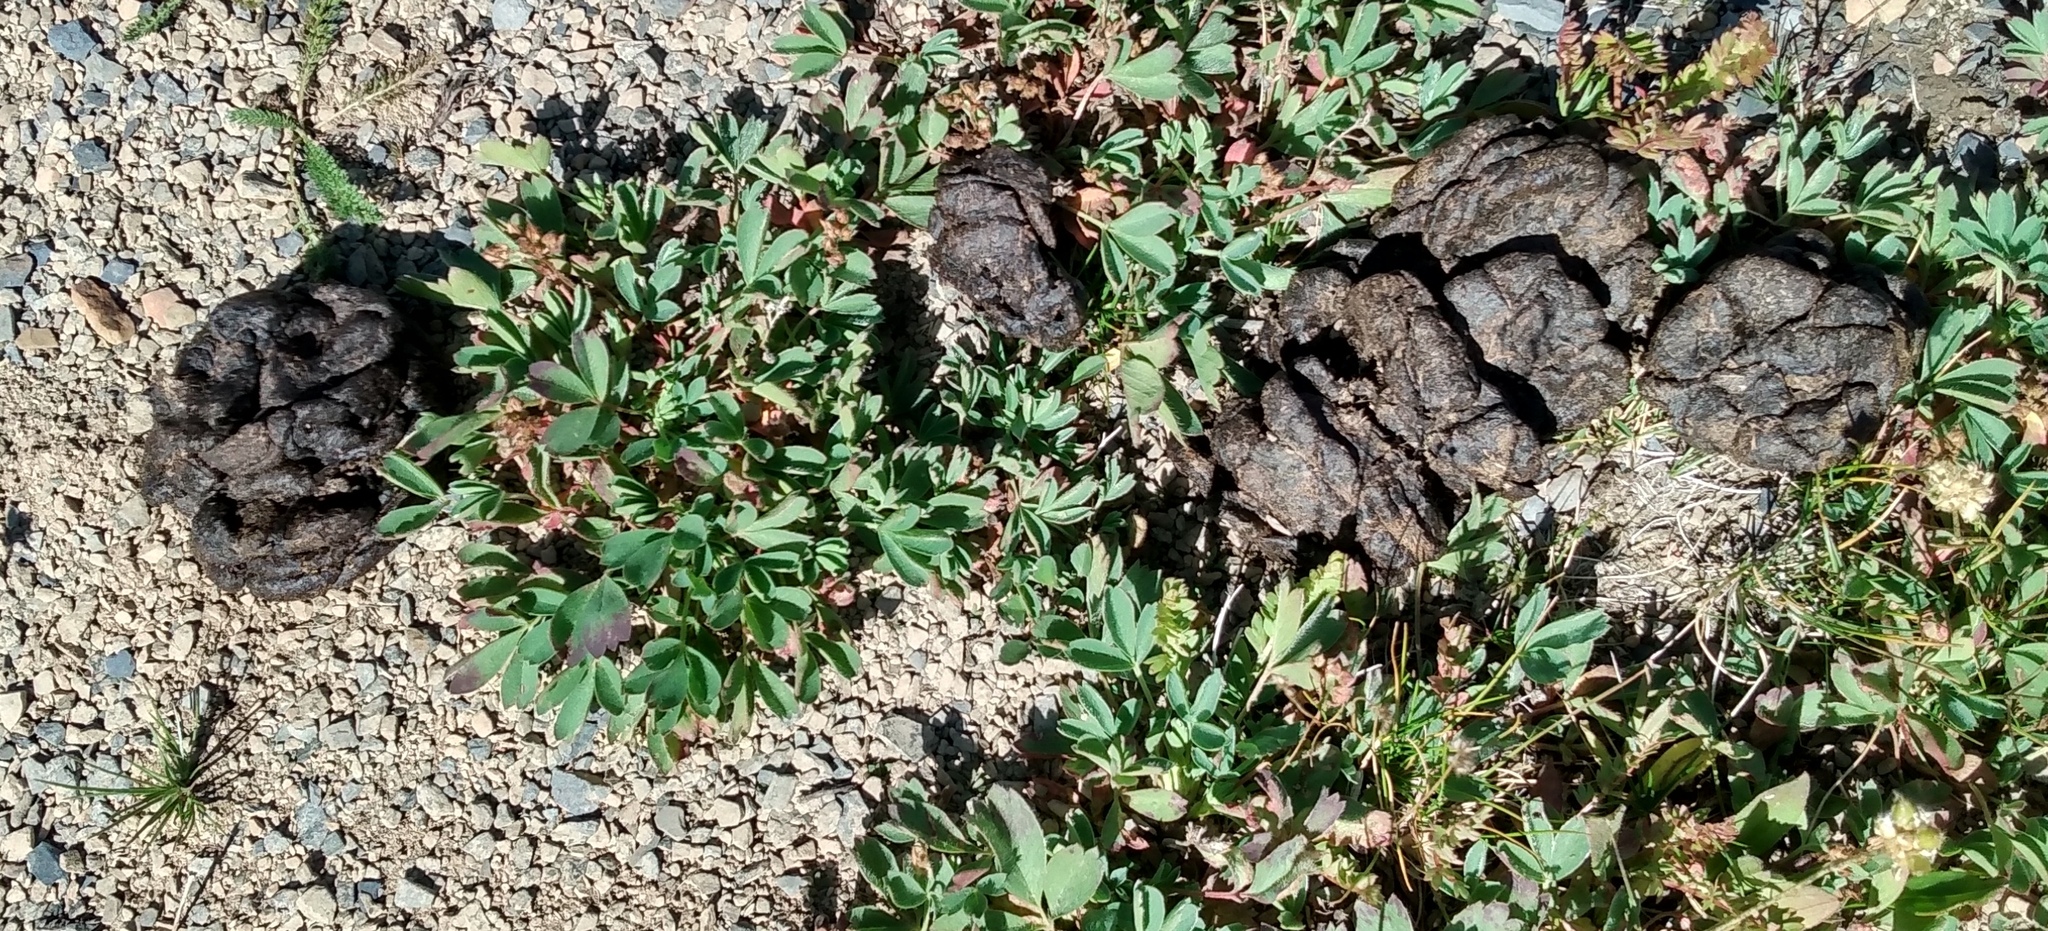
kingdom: Animalia
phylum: Chordata
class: Mammalia
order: Artiodactyla
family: Bovidae
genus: Oreamnos
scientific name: Oreamnos americanus
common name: Mountain goat
